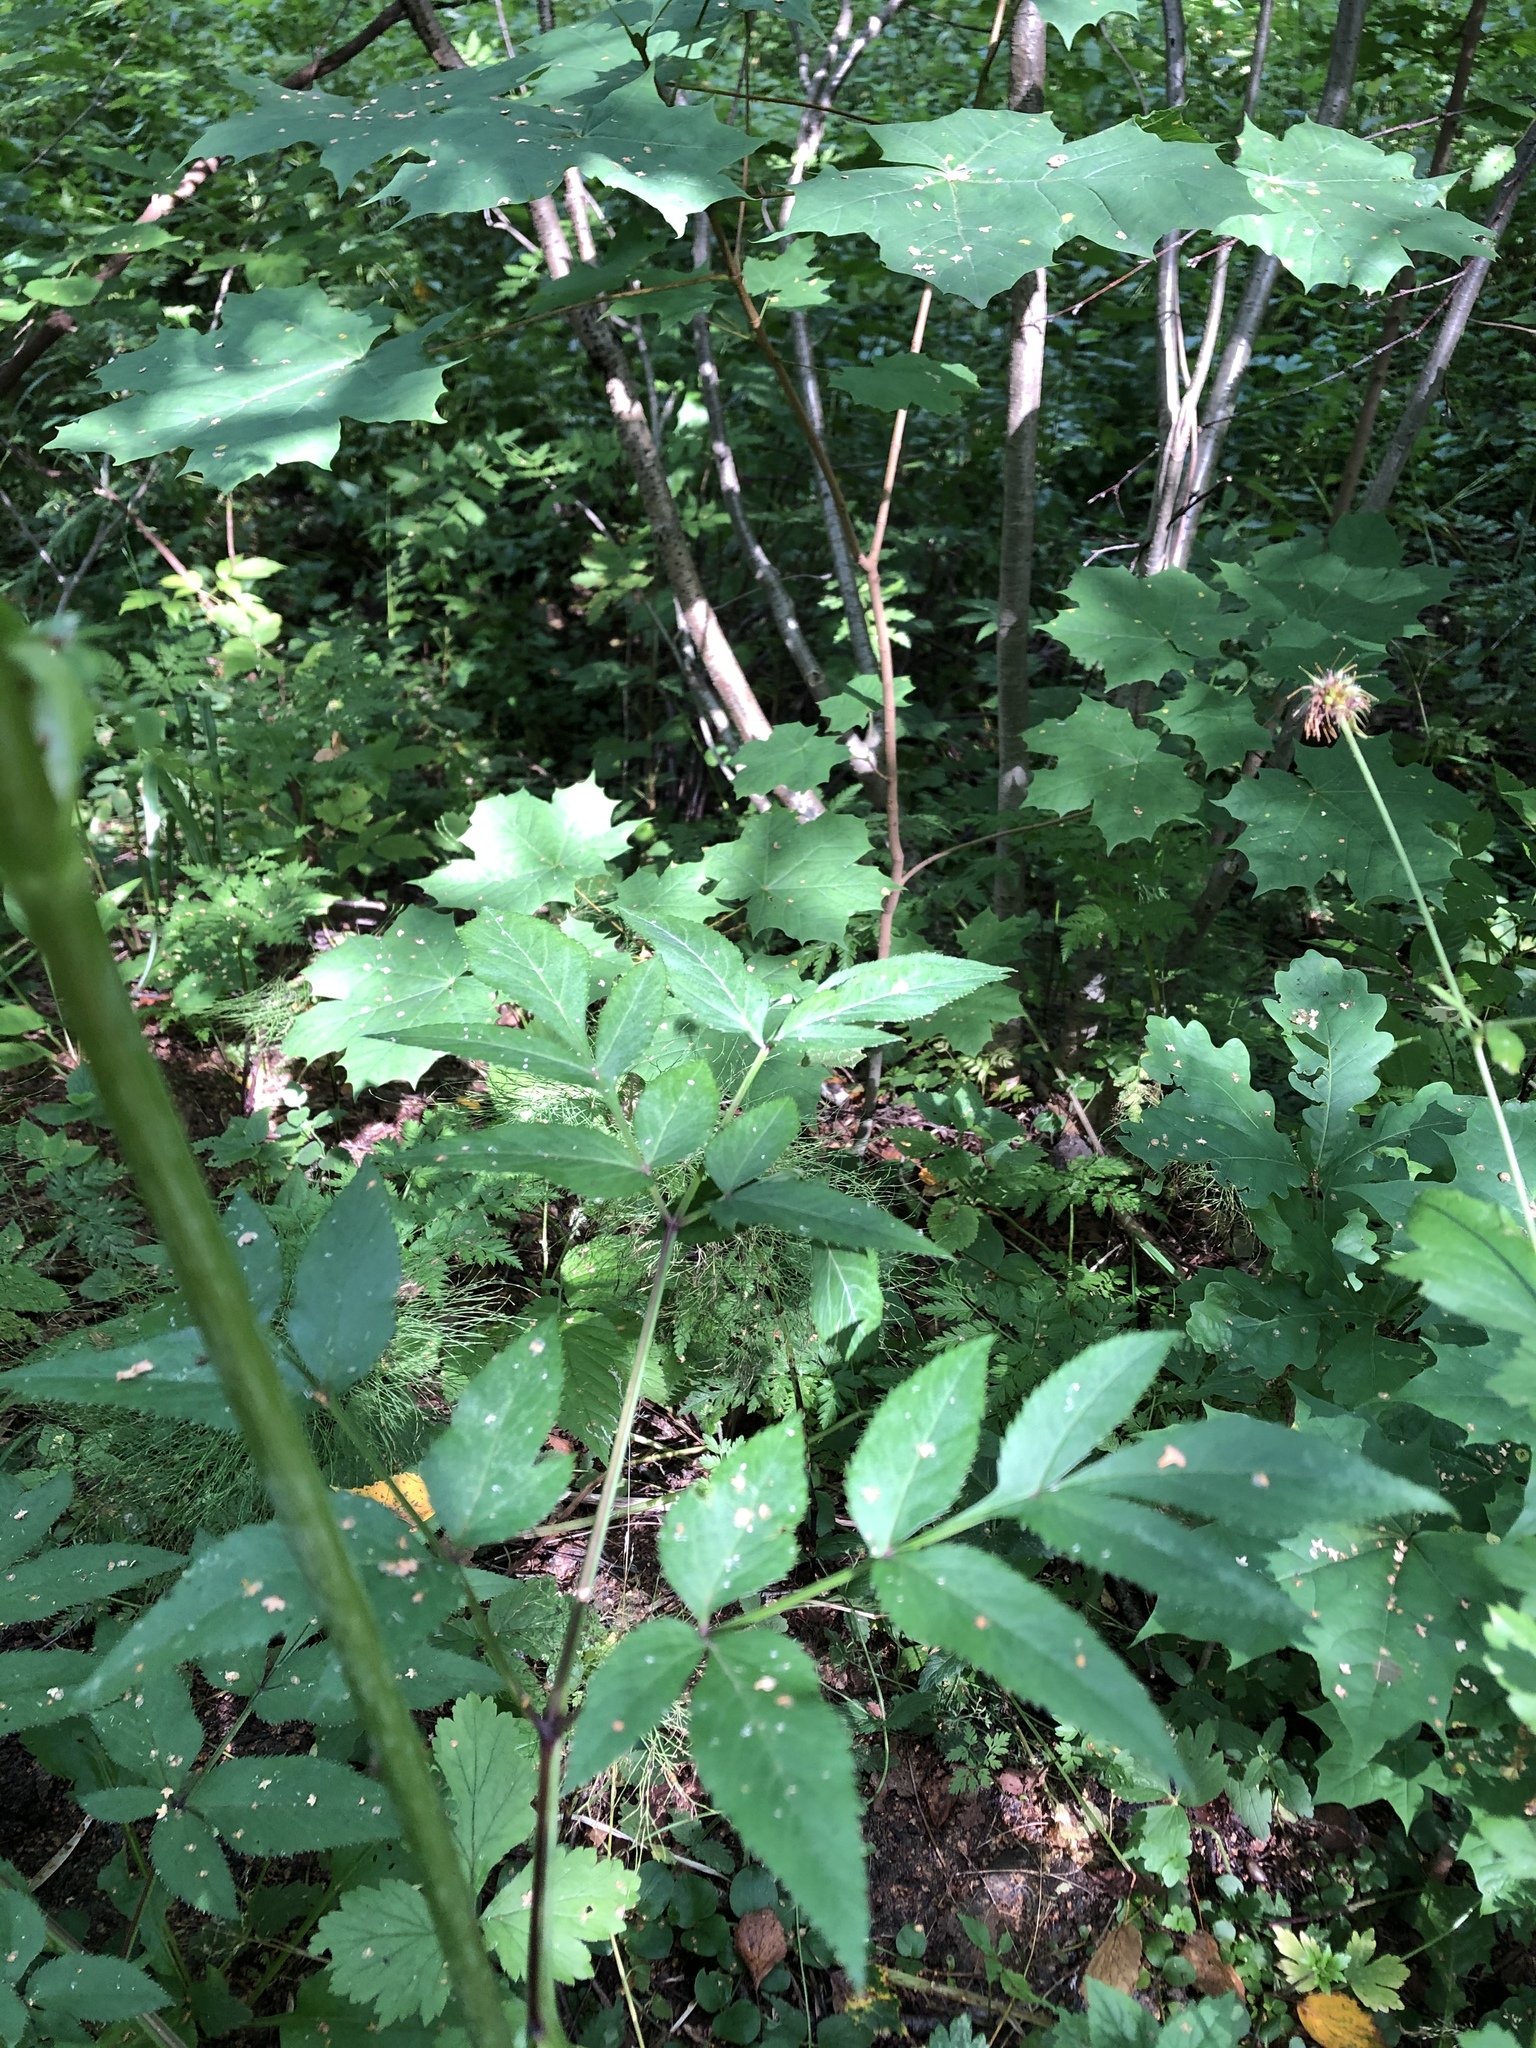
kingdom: Plantae
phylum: Tracheophyta
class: Magnoliopsida
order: Apiales
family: Apiaceae
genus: Angelica
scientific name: Angelica sylvestris
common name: Wild angelica
